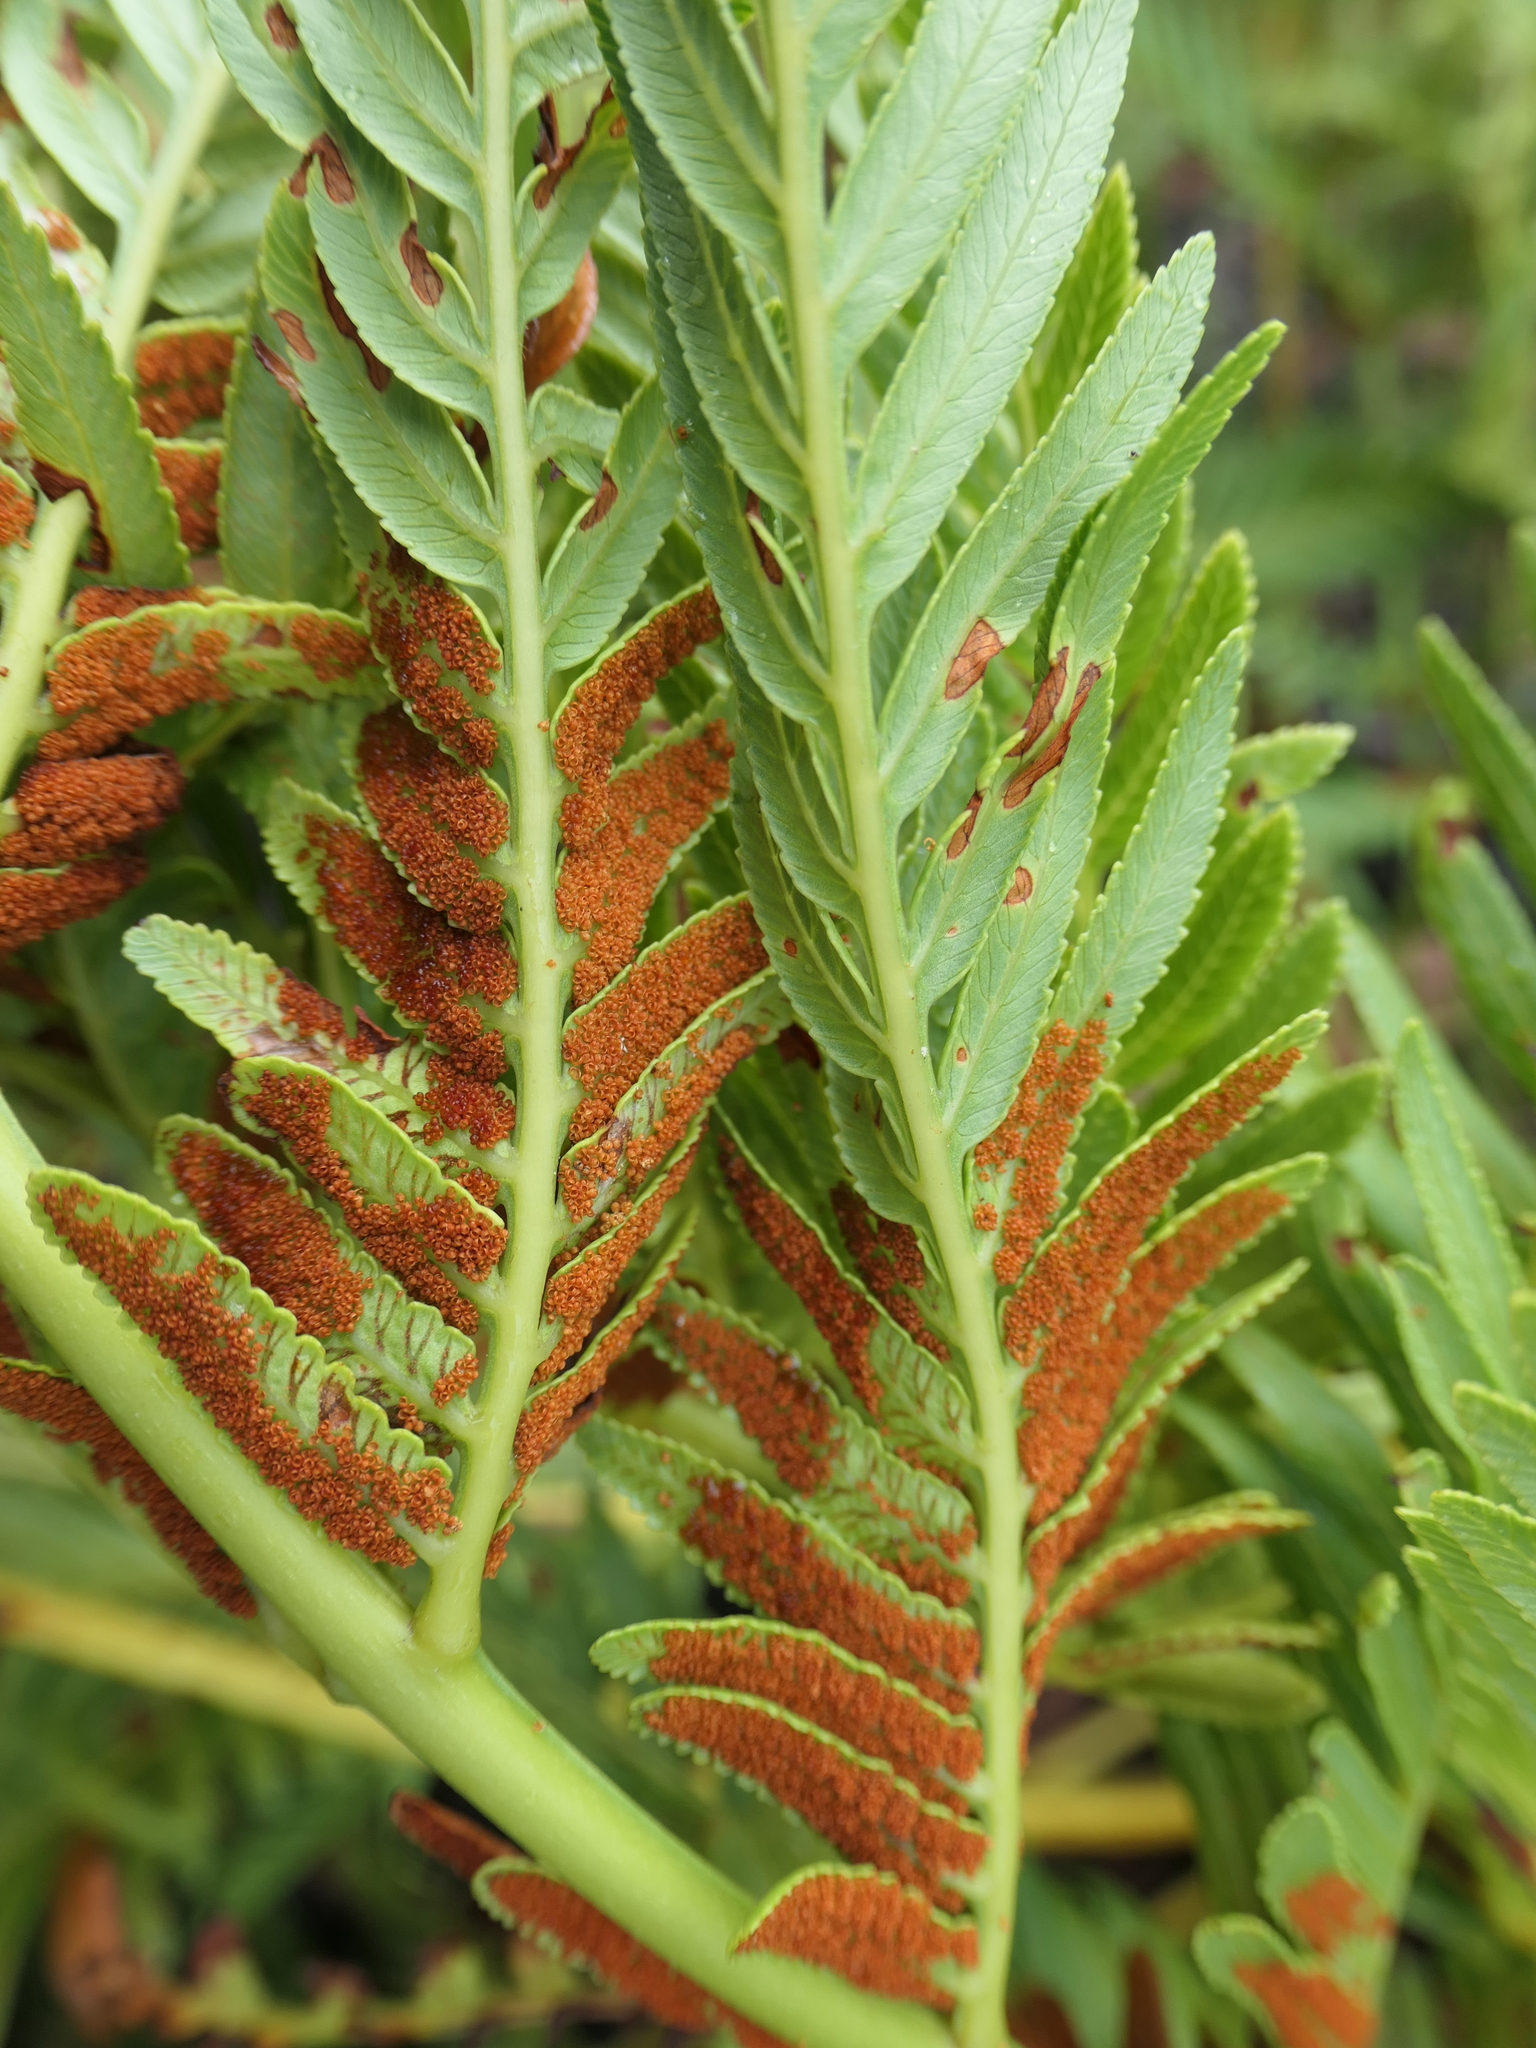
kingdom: Plantae
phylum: Tracheophyta
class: Polypodiopsida
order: Osmundales
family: Osmundaceae
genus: Todea
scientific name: Todea barbara
